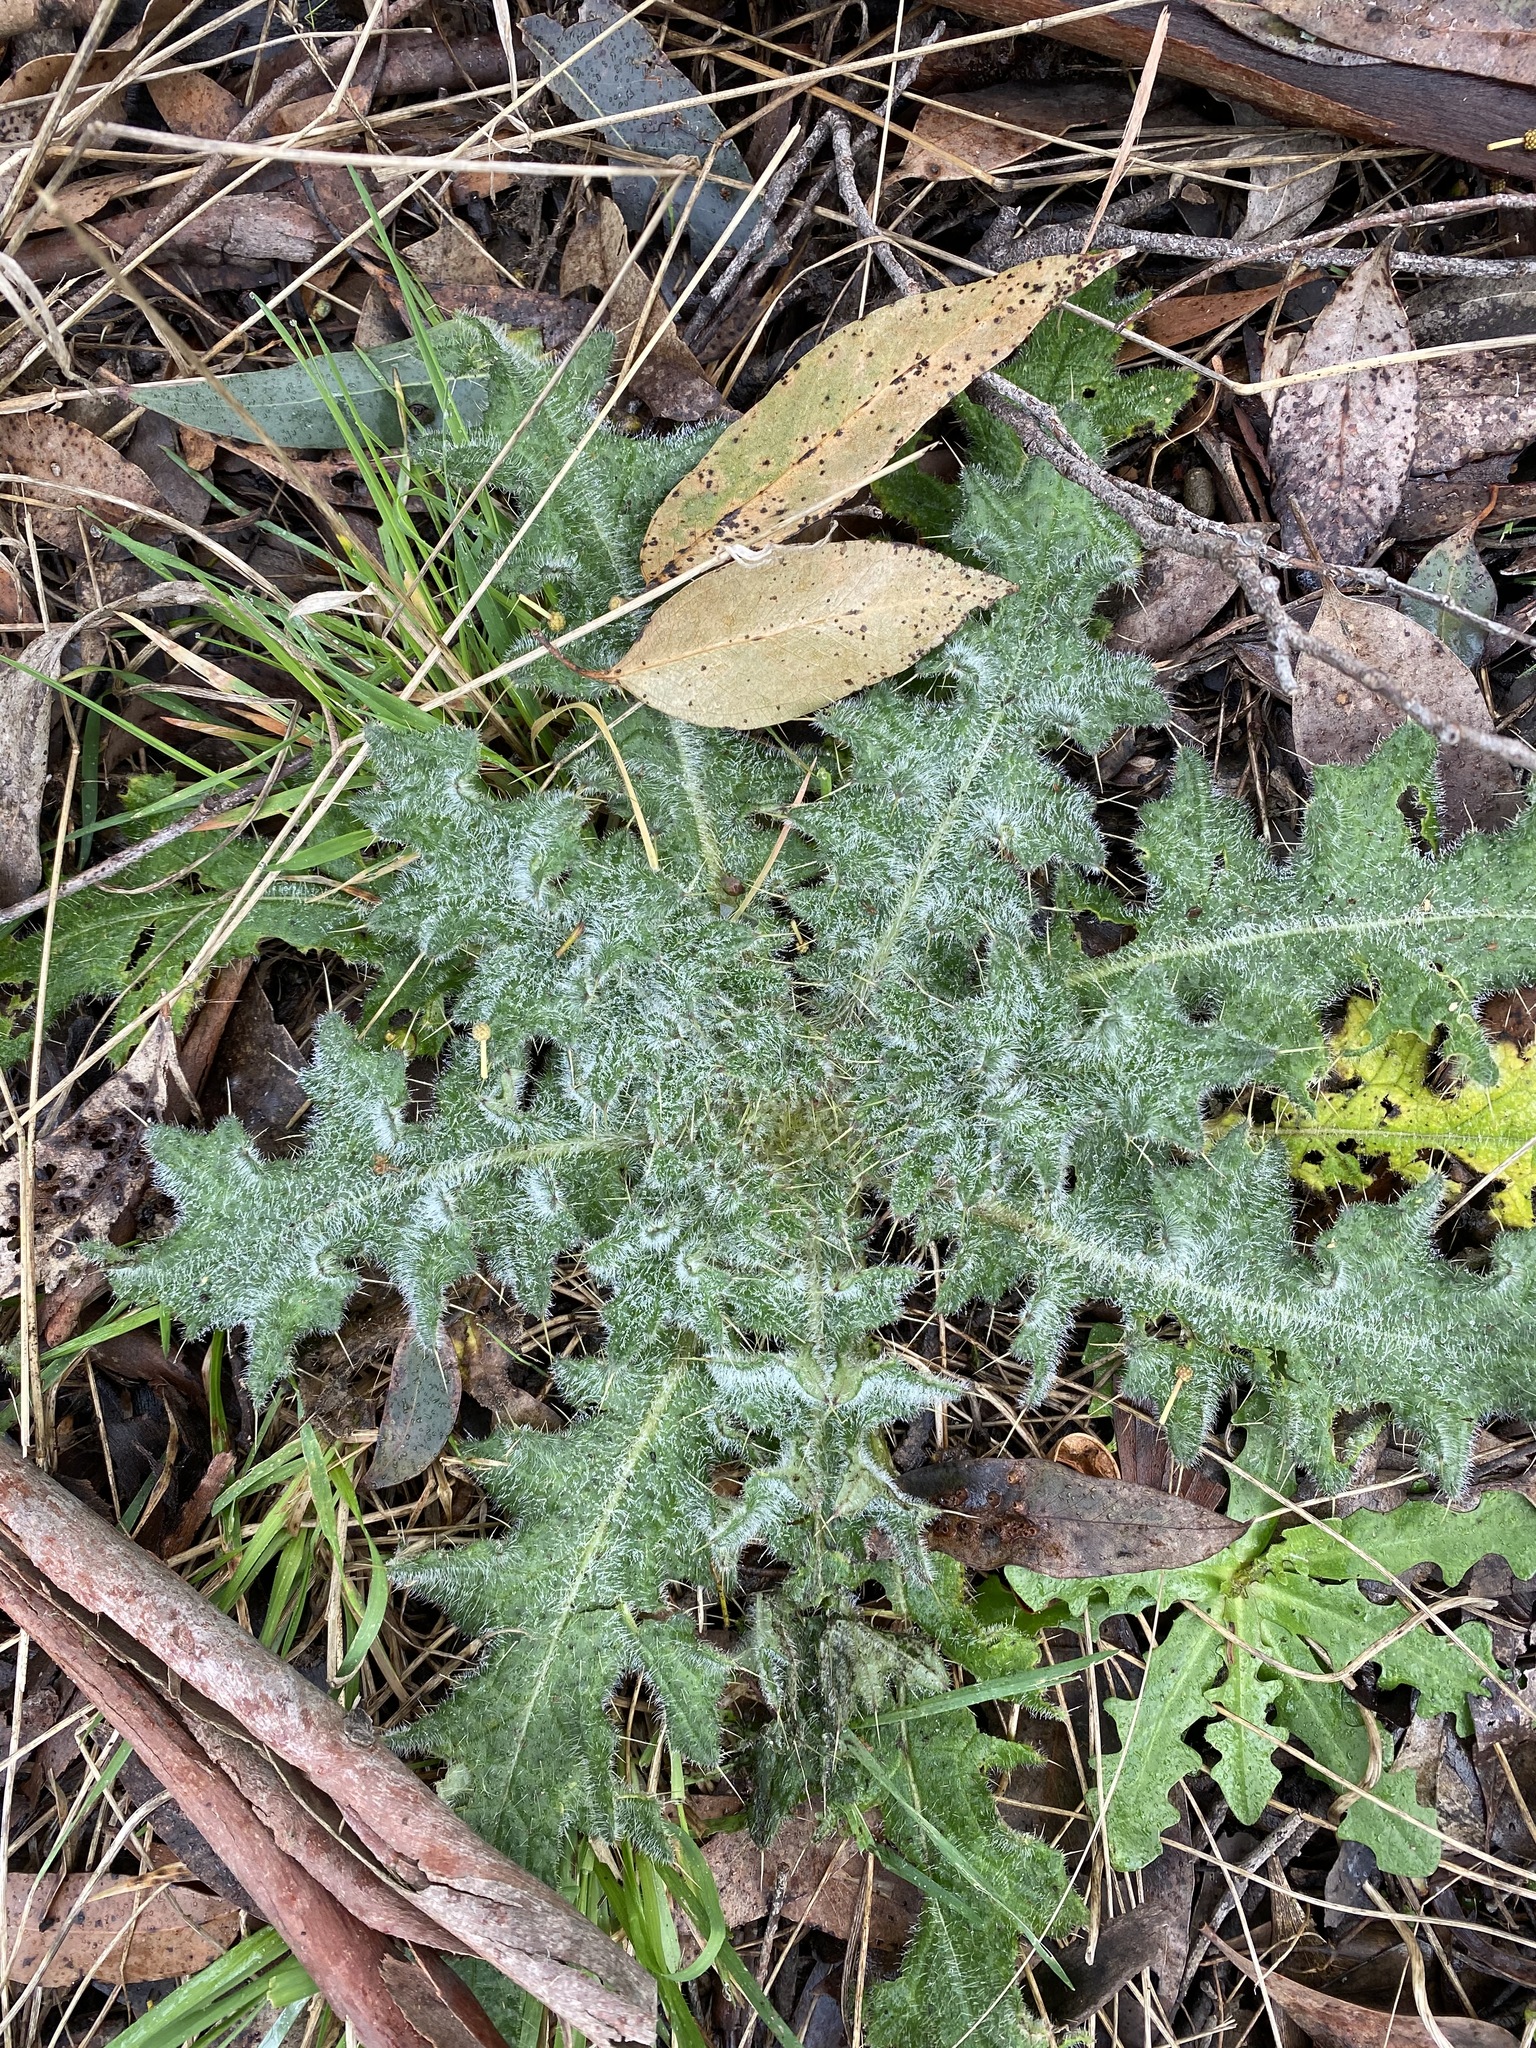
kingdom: Plantae
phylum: Tracheophyta
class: Magnoliopsida
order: Asterales
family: Asteraceae
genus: Cirsium
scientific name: Cirsium vulgare
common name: Bull thistle
